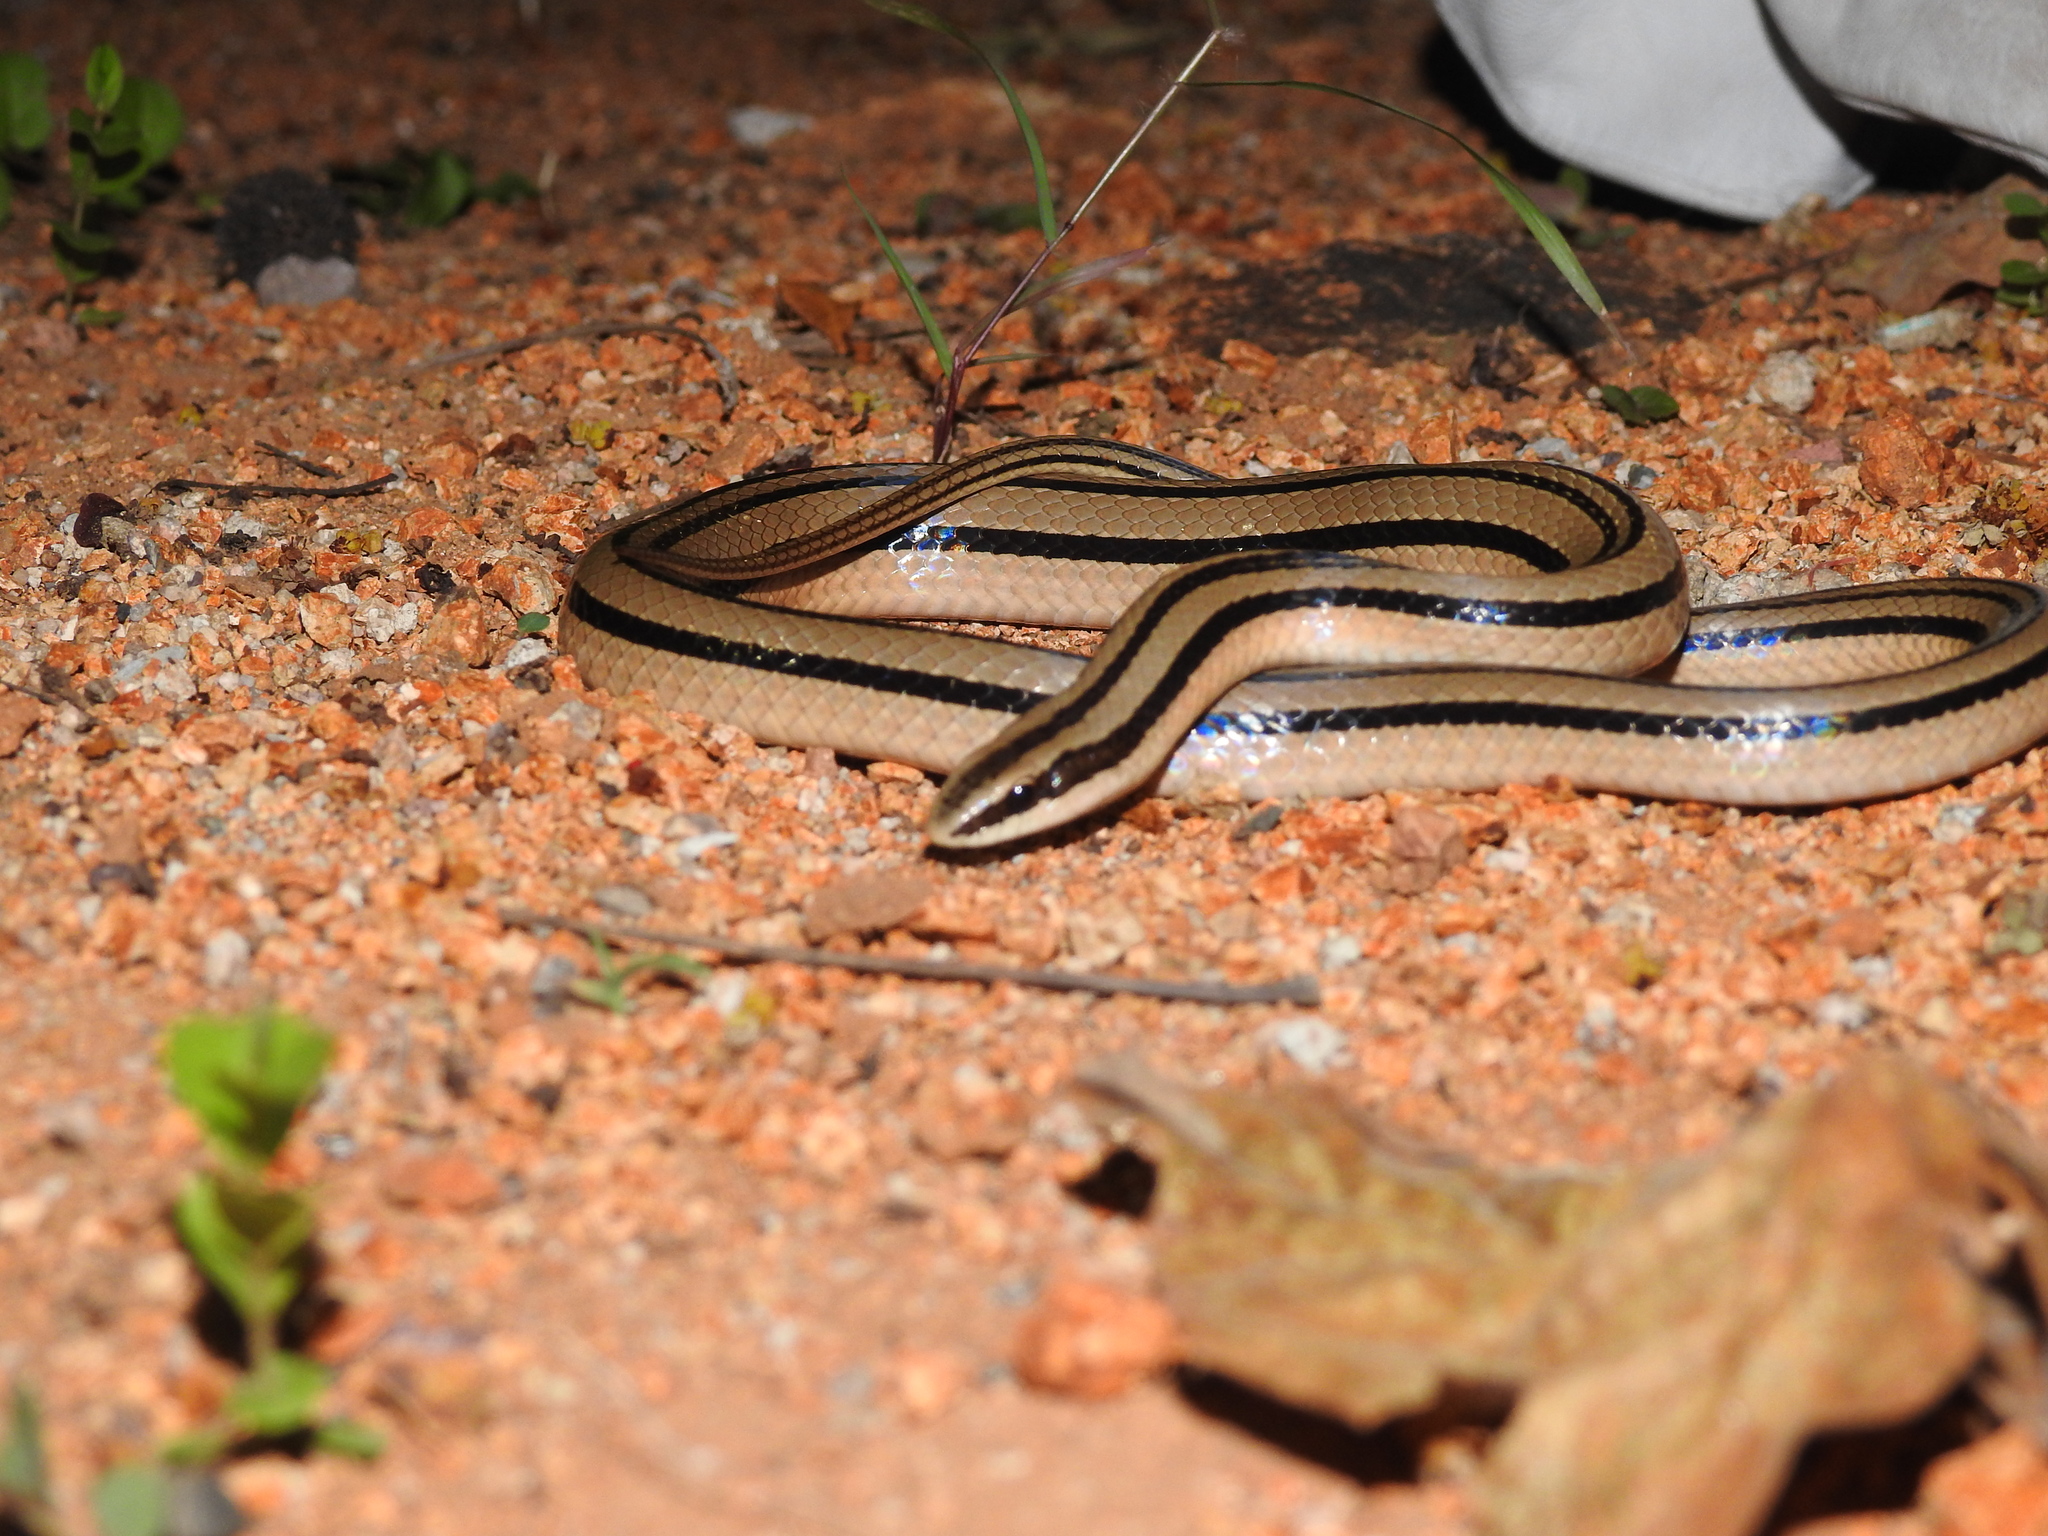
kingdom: Animalia
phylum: Chordata
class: Squamata
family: Colubridae
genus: Conophis
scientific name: Conophis vittatus
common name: Striped road guarder
